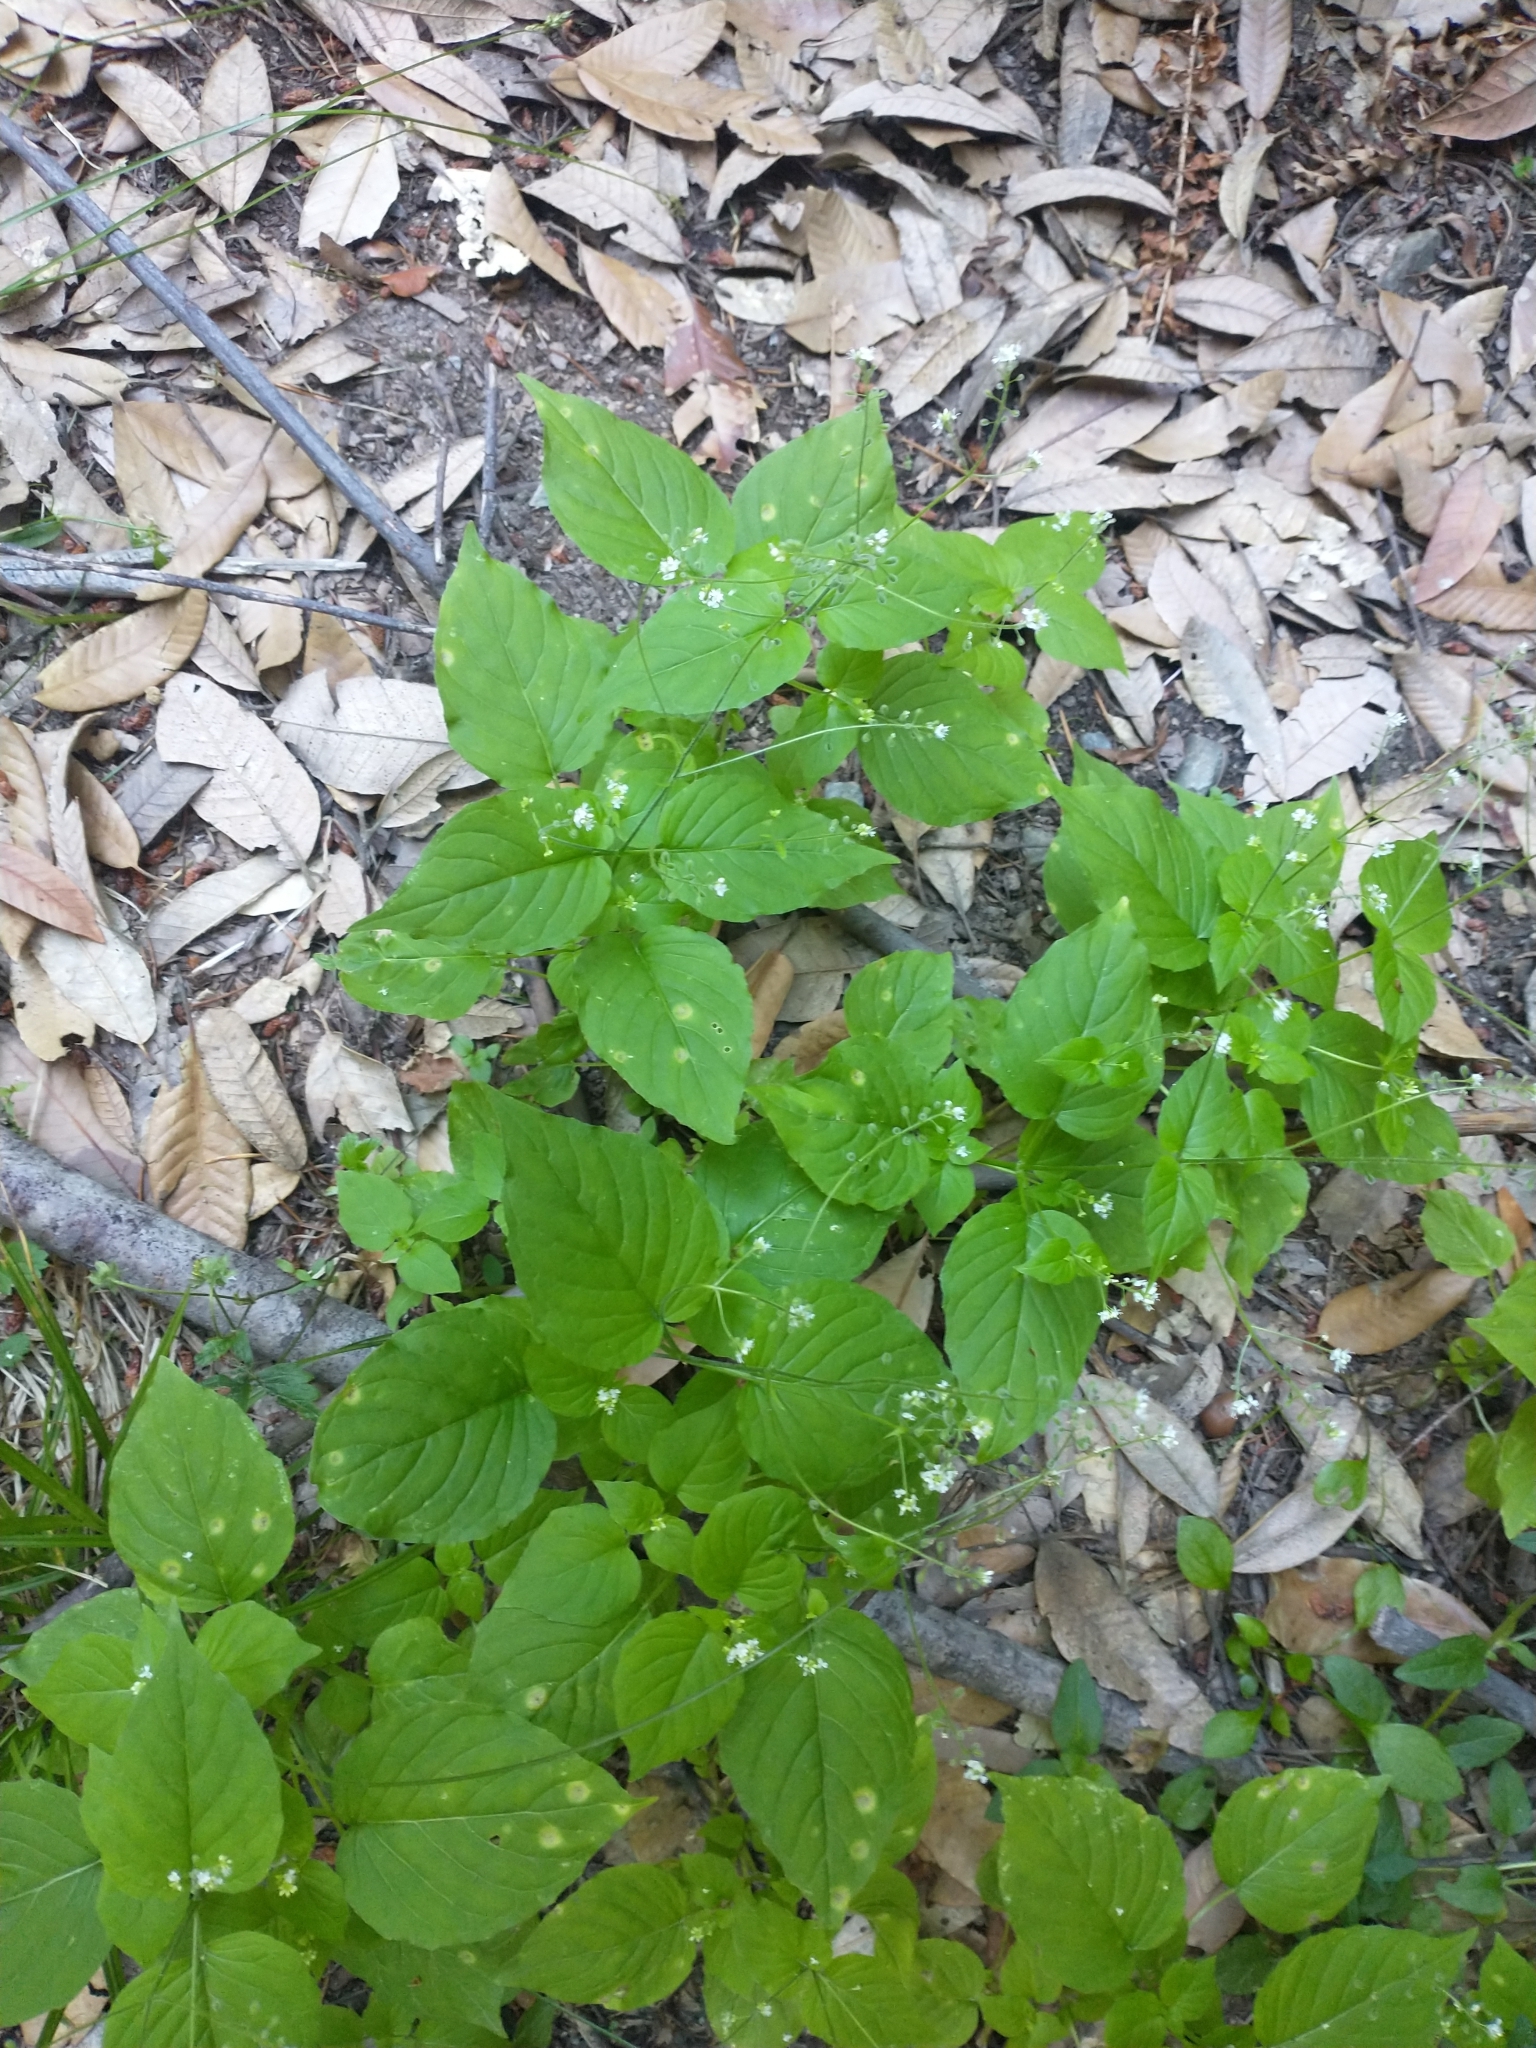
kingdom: Plantae
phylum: Tracheophyta
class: Magnoliopsida
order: Myrtales
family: Onagraceae
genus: Circaea
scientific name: Circaea alpina
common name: Alpine enchanter's-nightshade
